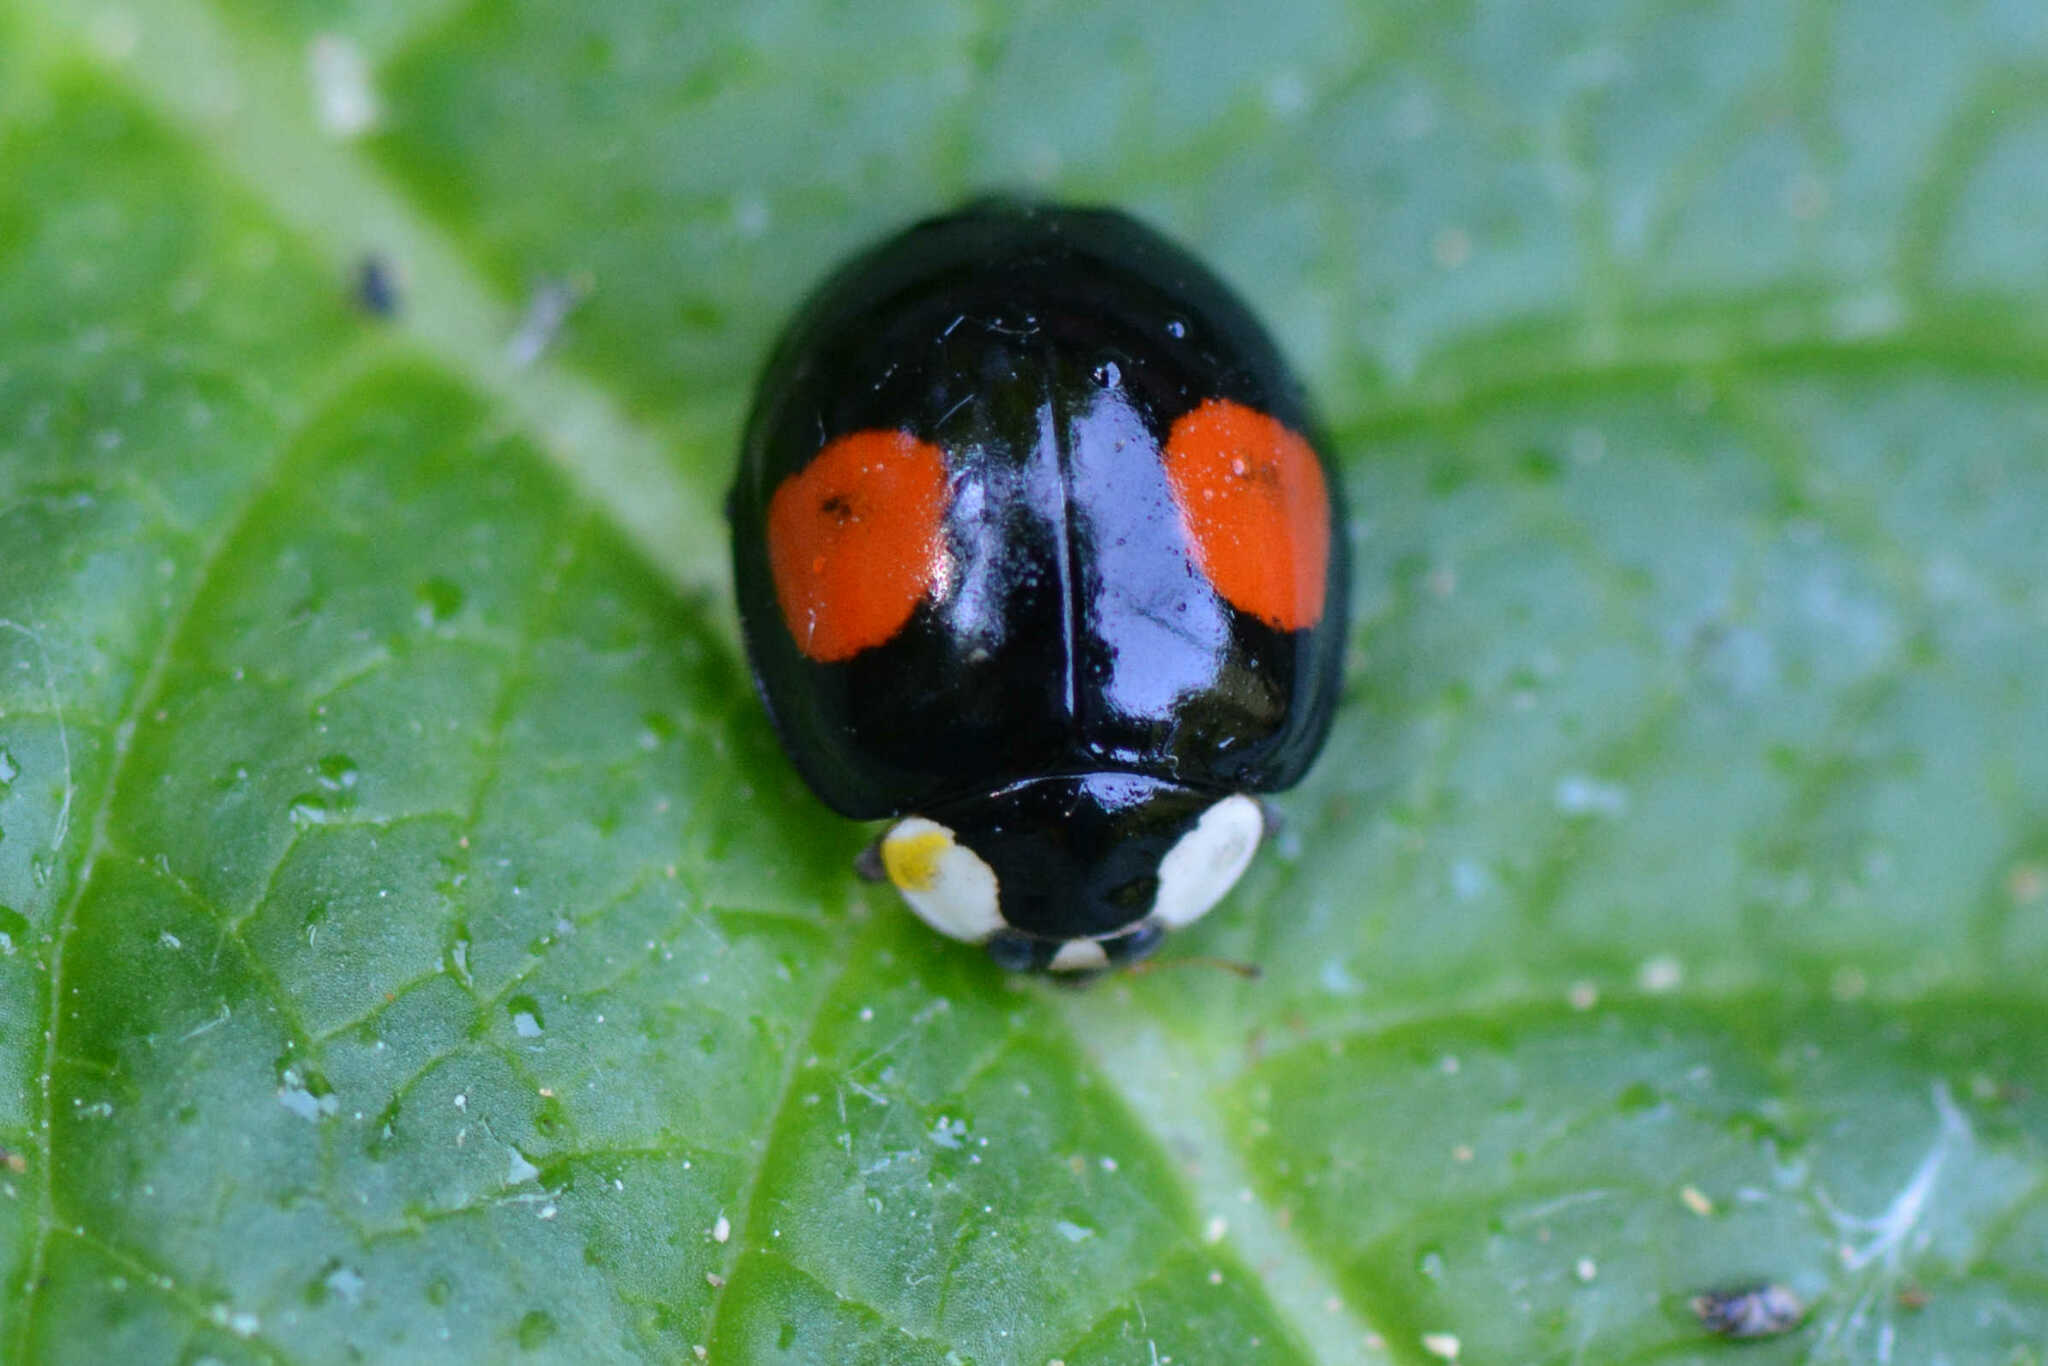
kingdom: Animalia
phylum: Arthropoda
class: Insecta
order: Coleoptera
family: Coccinellidae
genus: Harmonia
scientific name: Harmonia axyridis
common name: Harlequin ladybird
